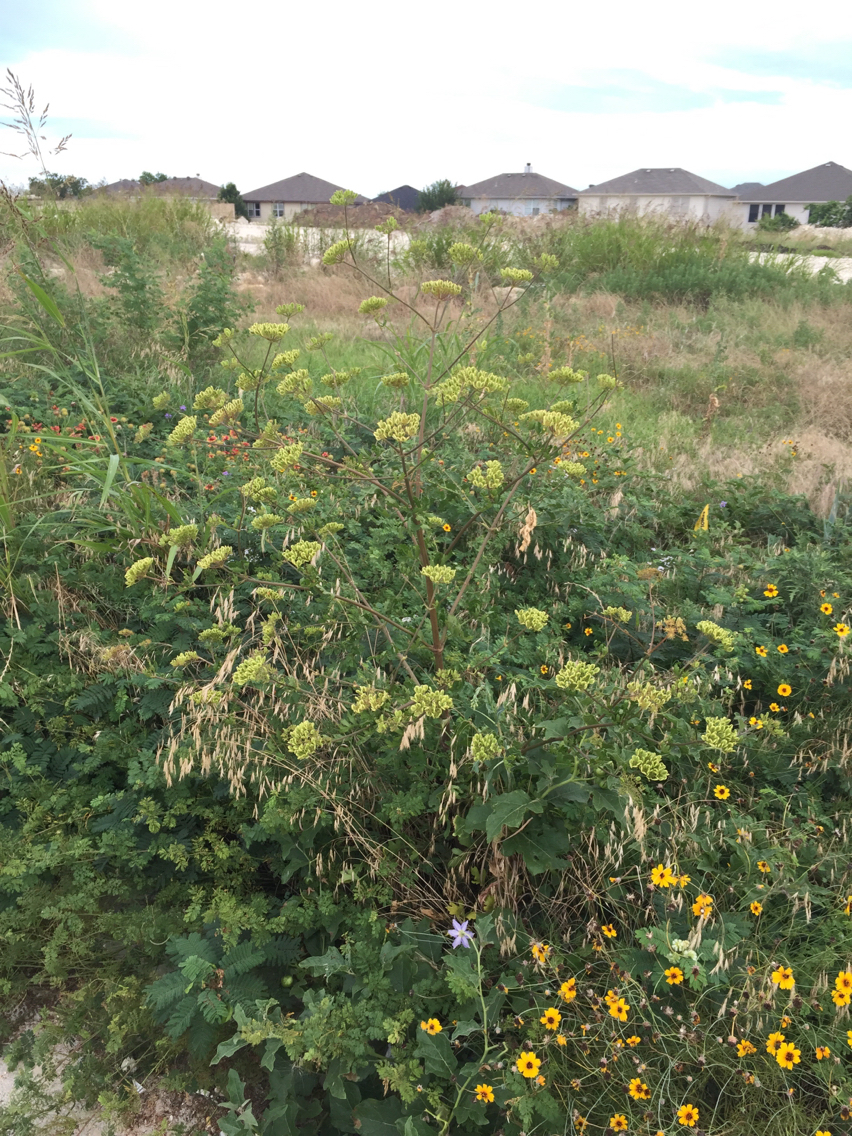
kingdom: Plantae
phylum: Tracheophyta
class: Magnoliopsida
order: Apiales
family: Apiaceae
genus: Polytaenia
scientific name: Polytaenia texana
